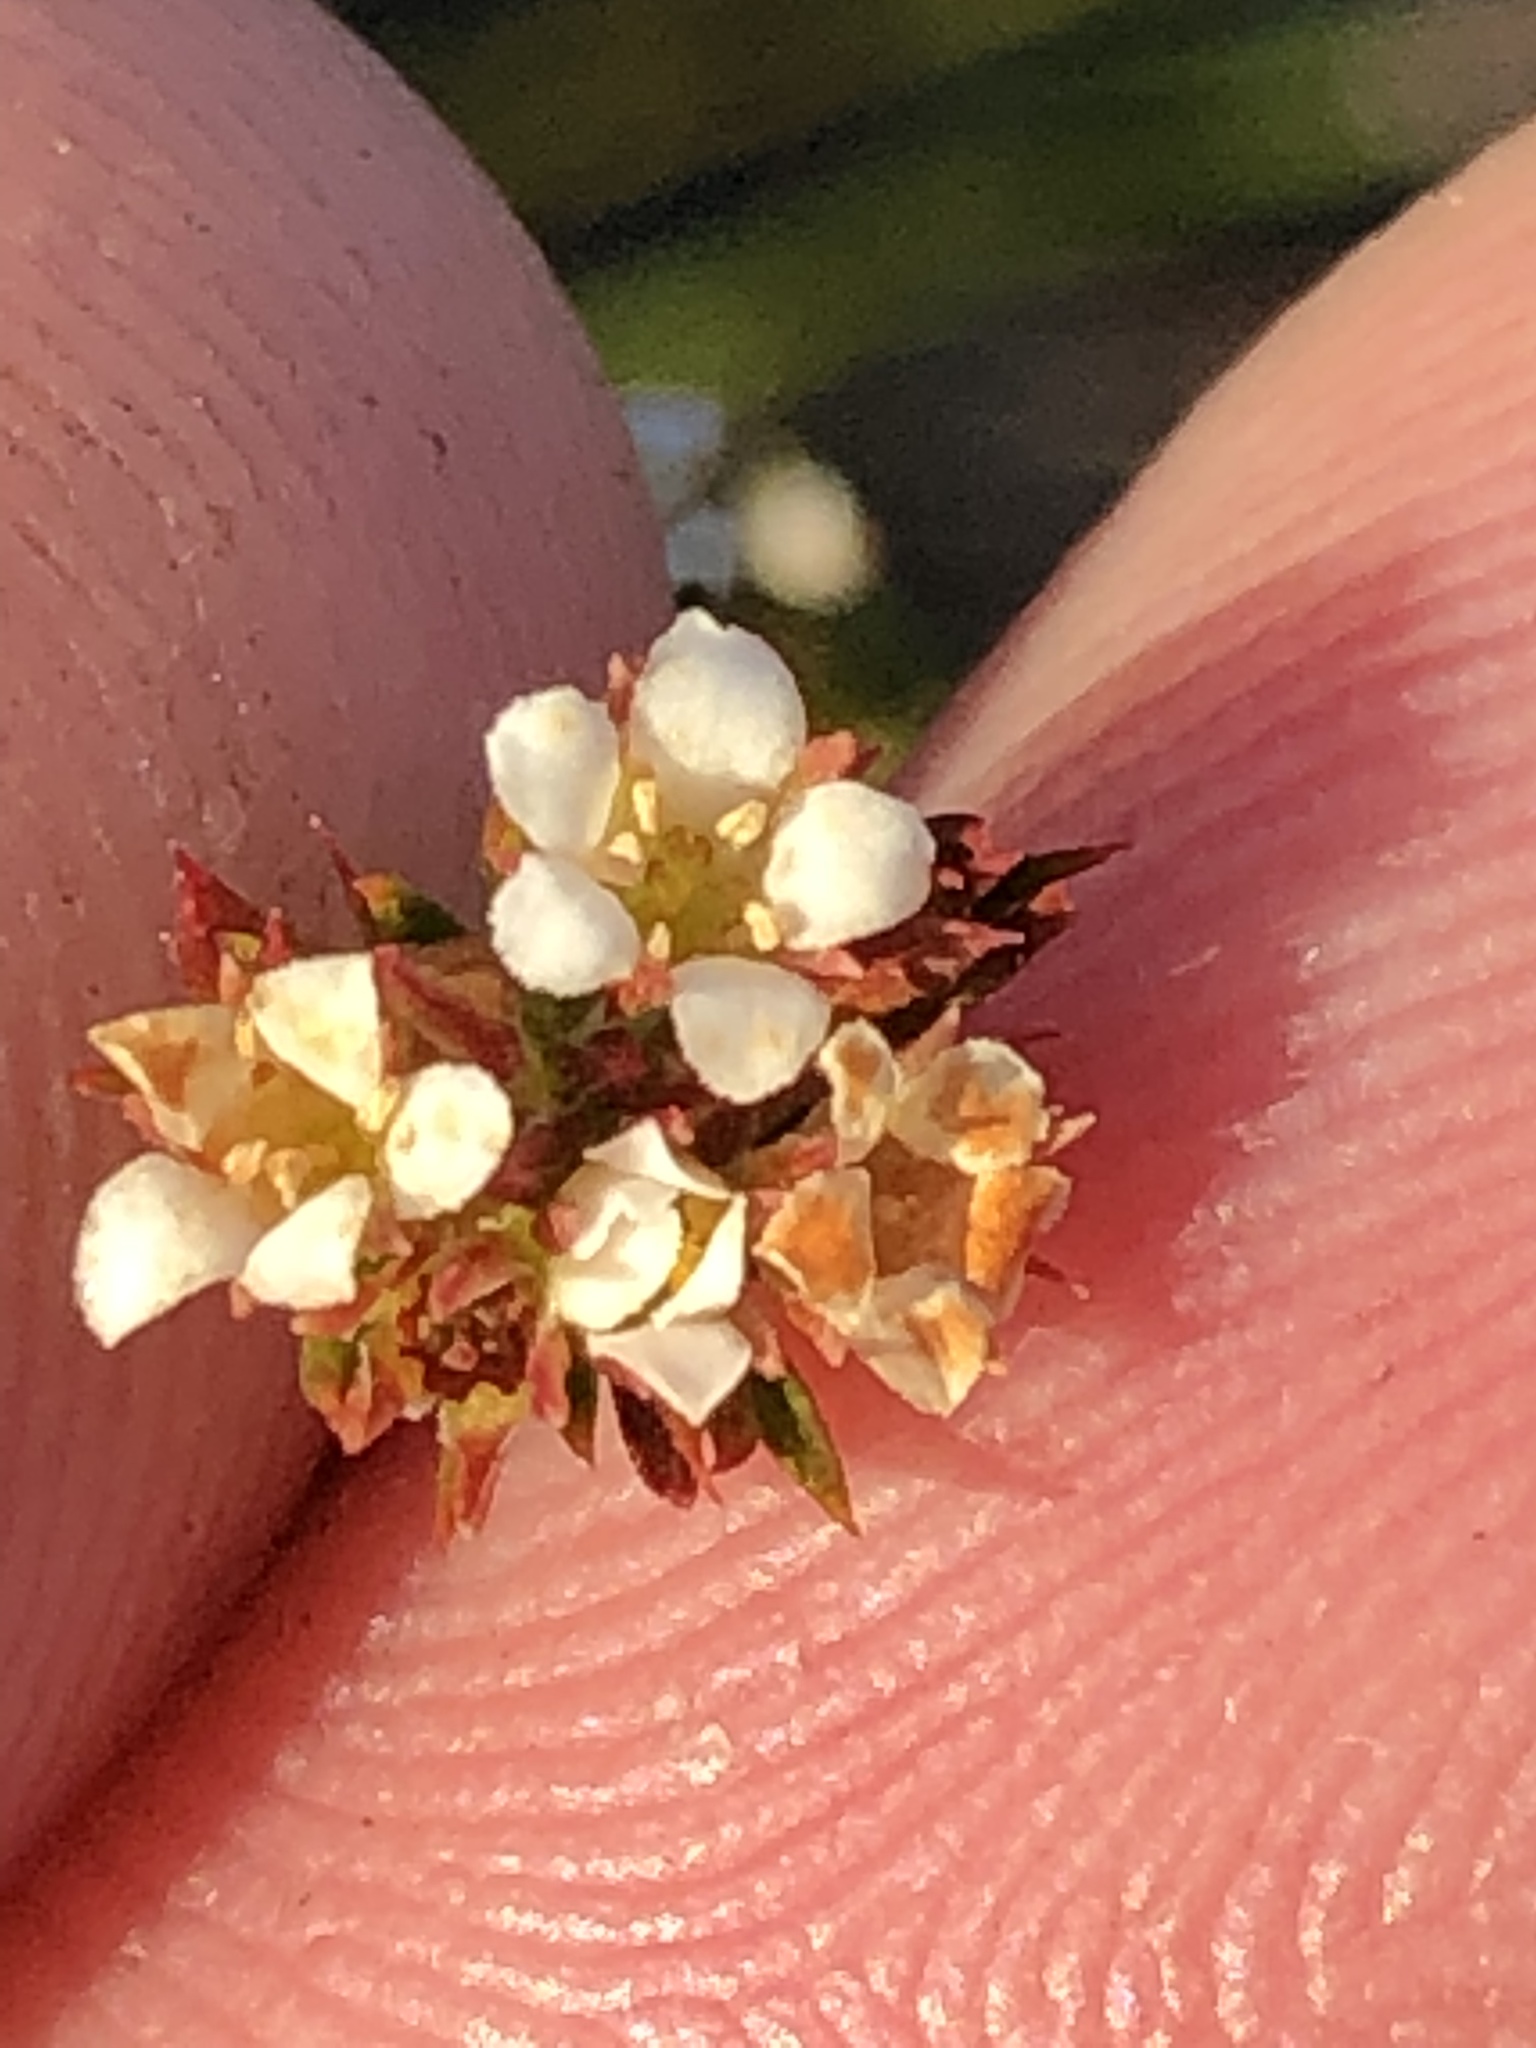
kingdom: Plantae
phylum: Tracheophyta
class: Magnoliopsida
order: Sapindales
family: Rutaceae
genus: Diosma
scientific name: Diosma rourkei
